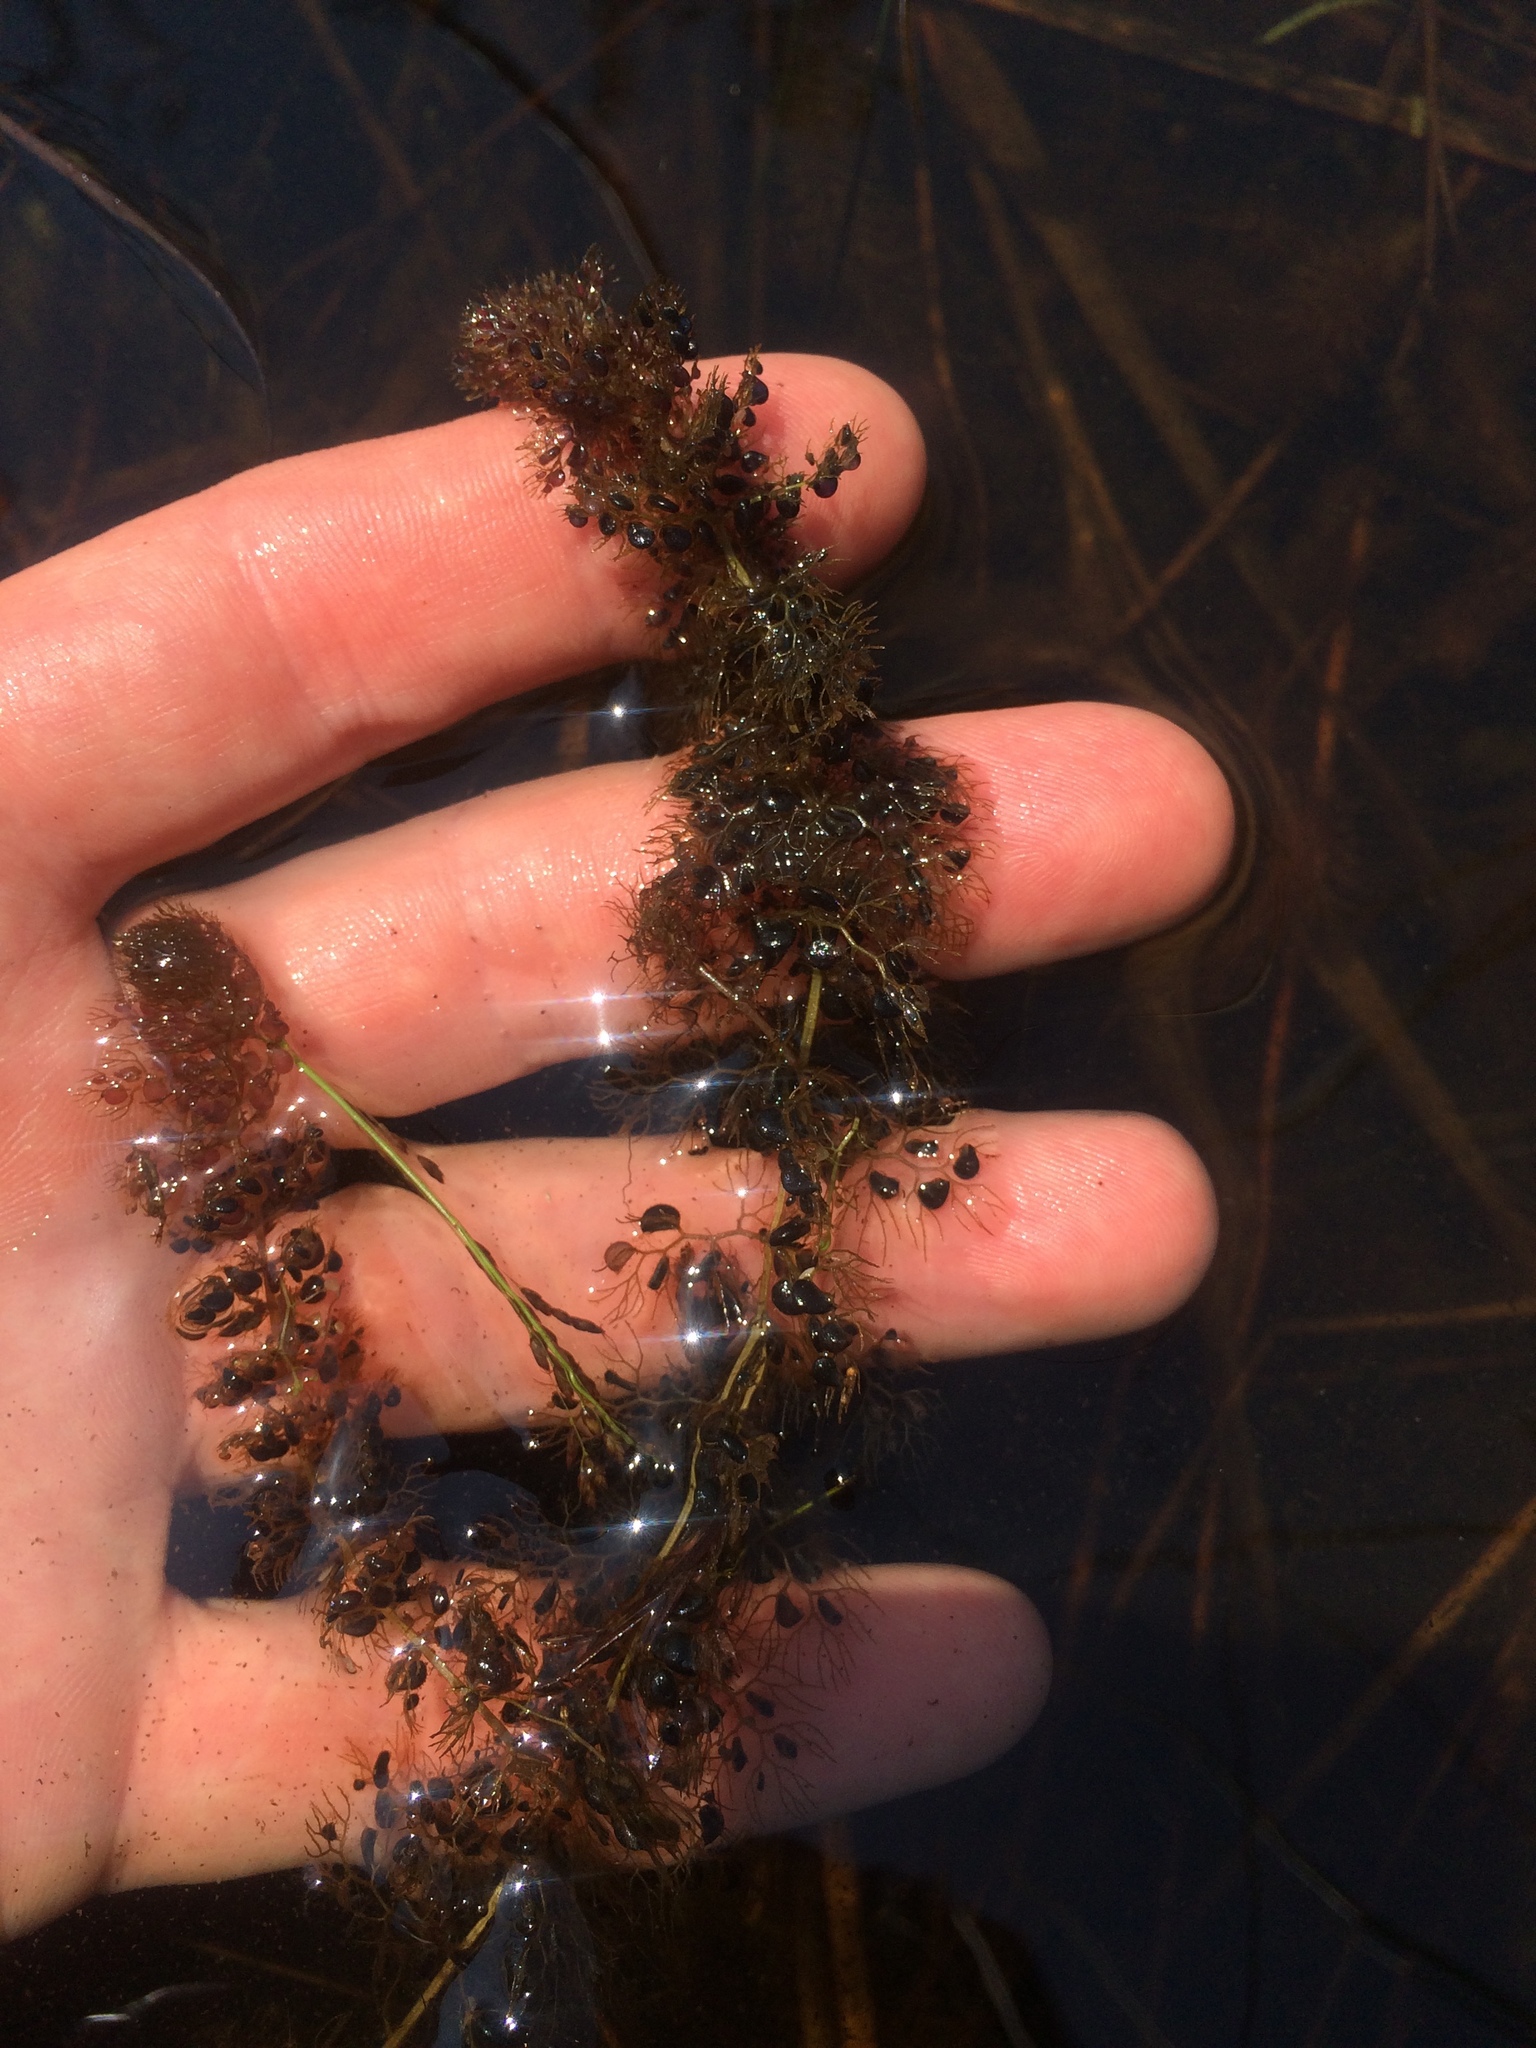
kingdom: Plantae
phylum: Tracheophyta
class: Magnoliopsida
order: Lamiales
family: Lentibulariaceae
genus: Utricularia
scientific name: Utricularia macrorhiza
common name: Common bladderwort
